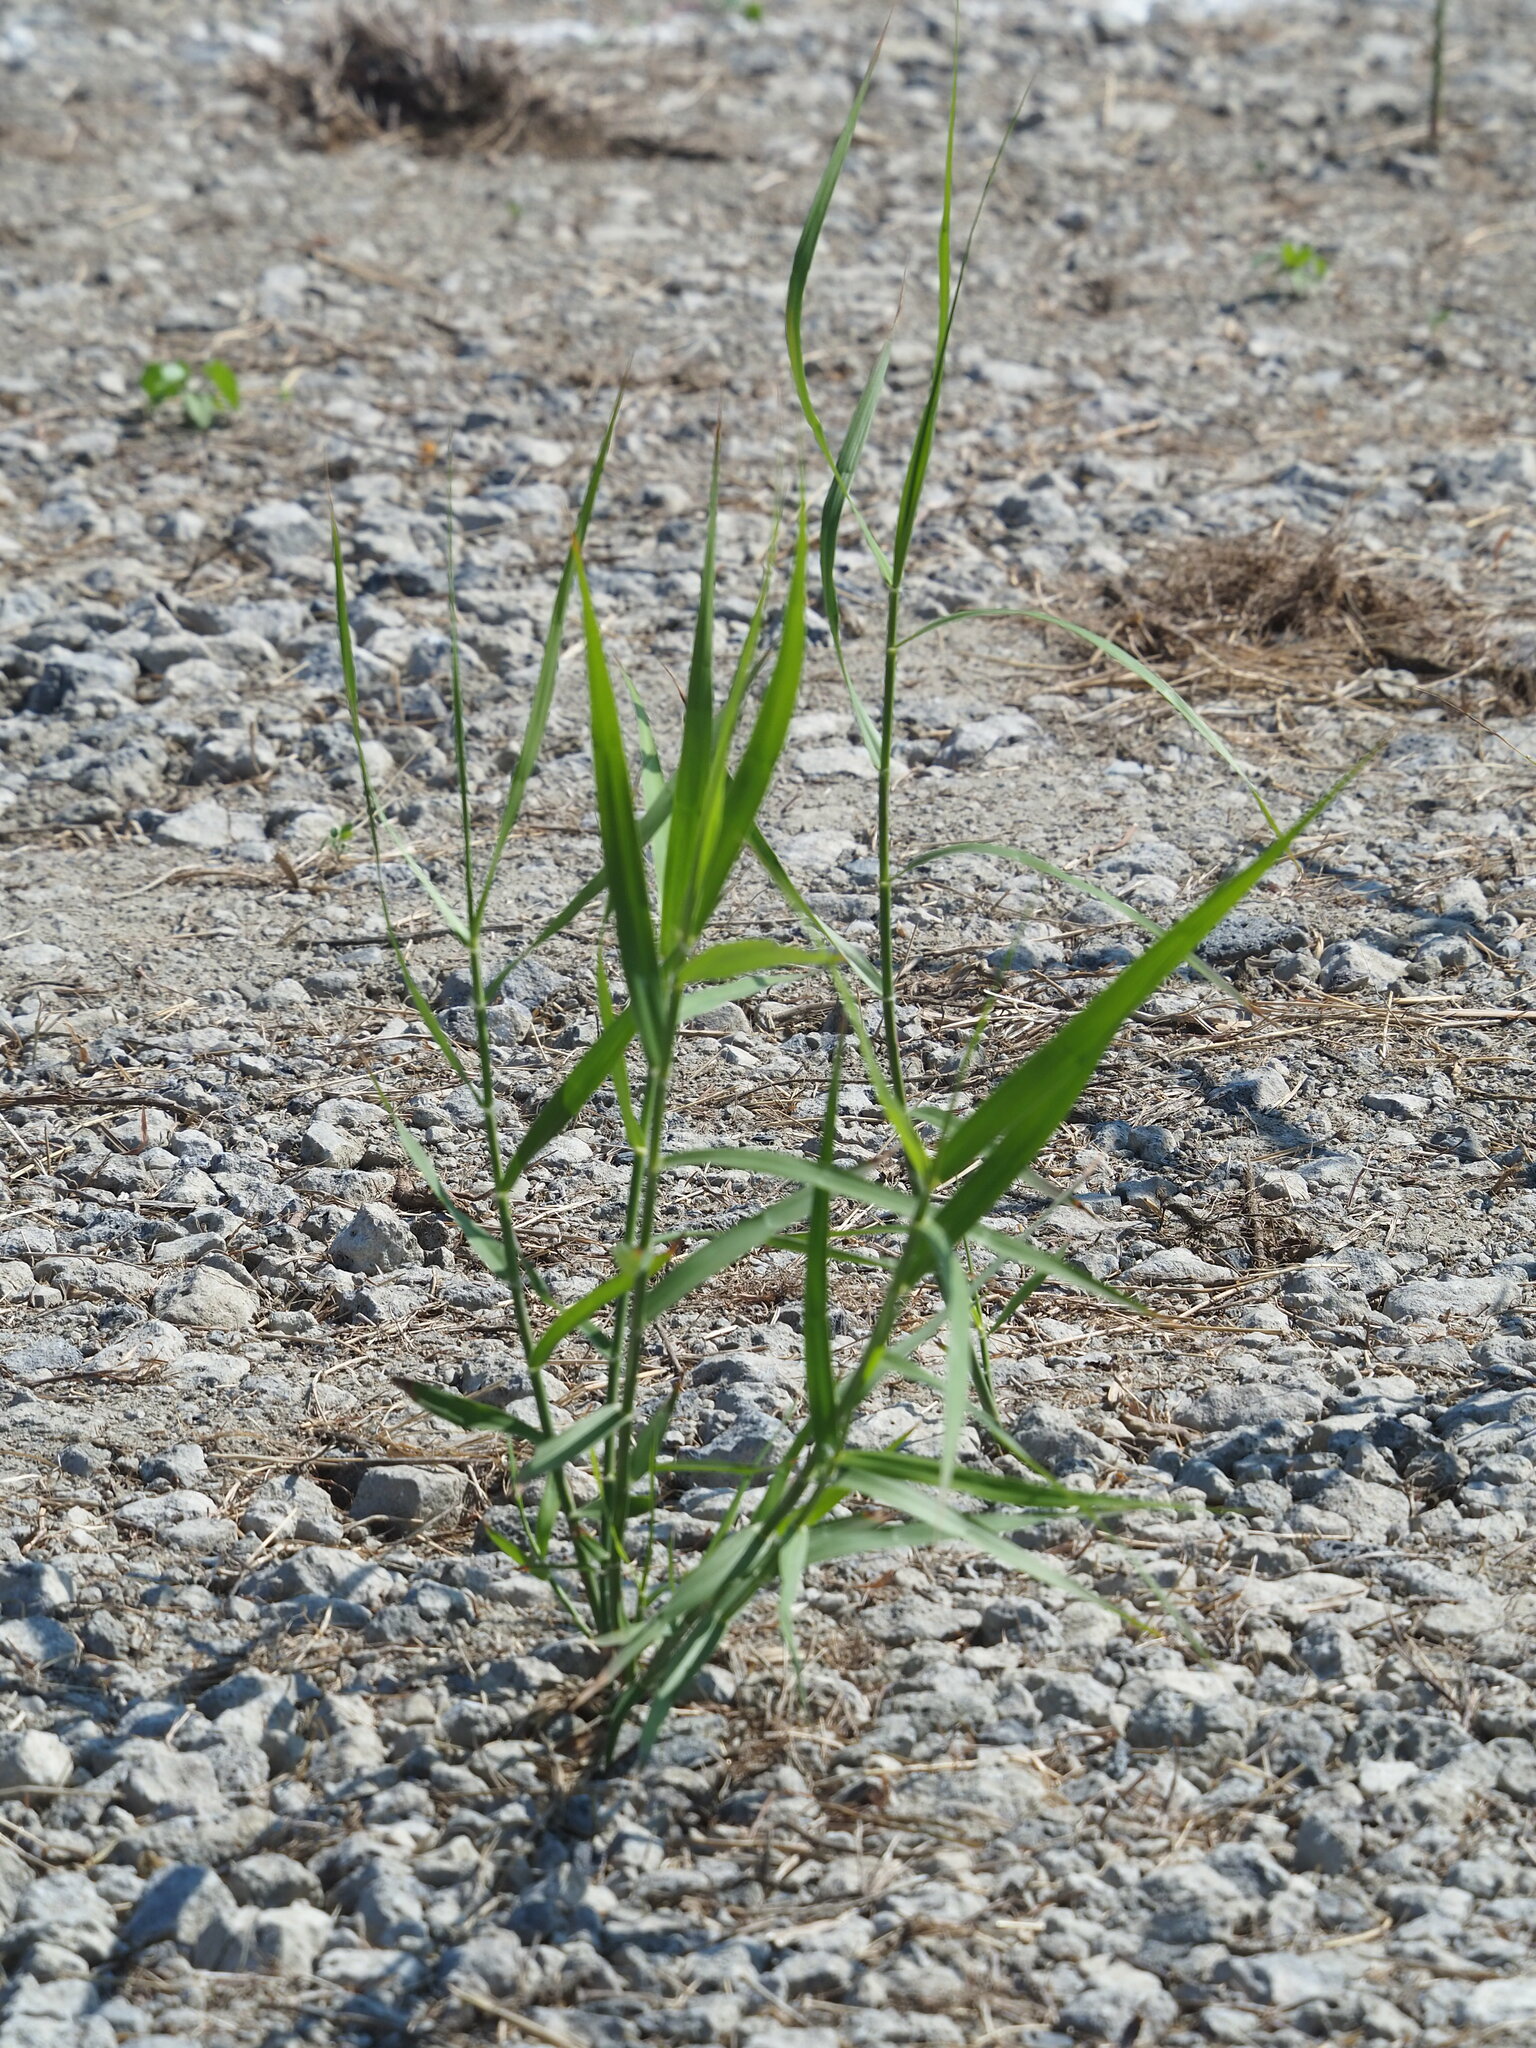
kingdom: Plantae
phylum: Tracheophyta
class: Liliopsida
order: Poales
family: Poaceae
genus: Phragmites
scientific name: Phragmites australis
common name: Common reed
